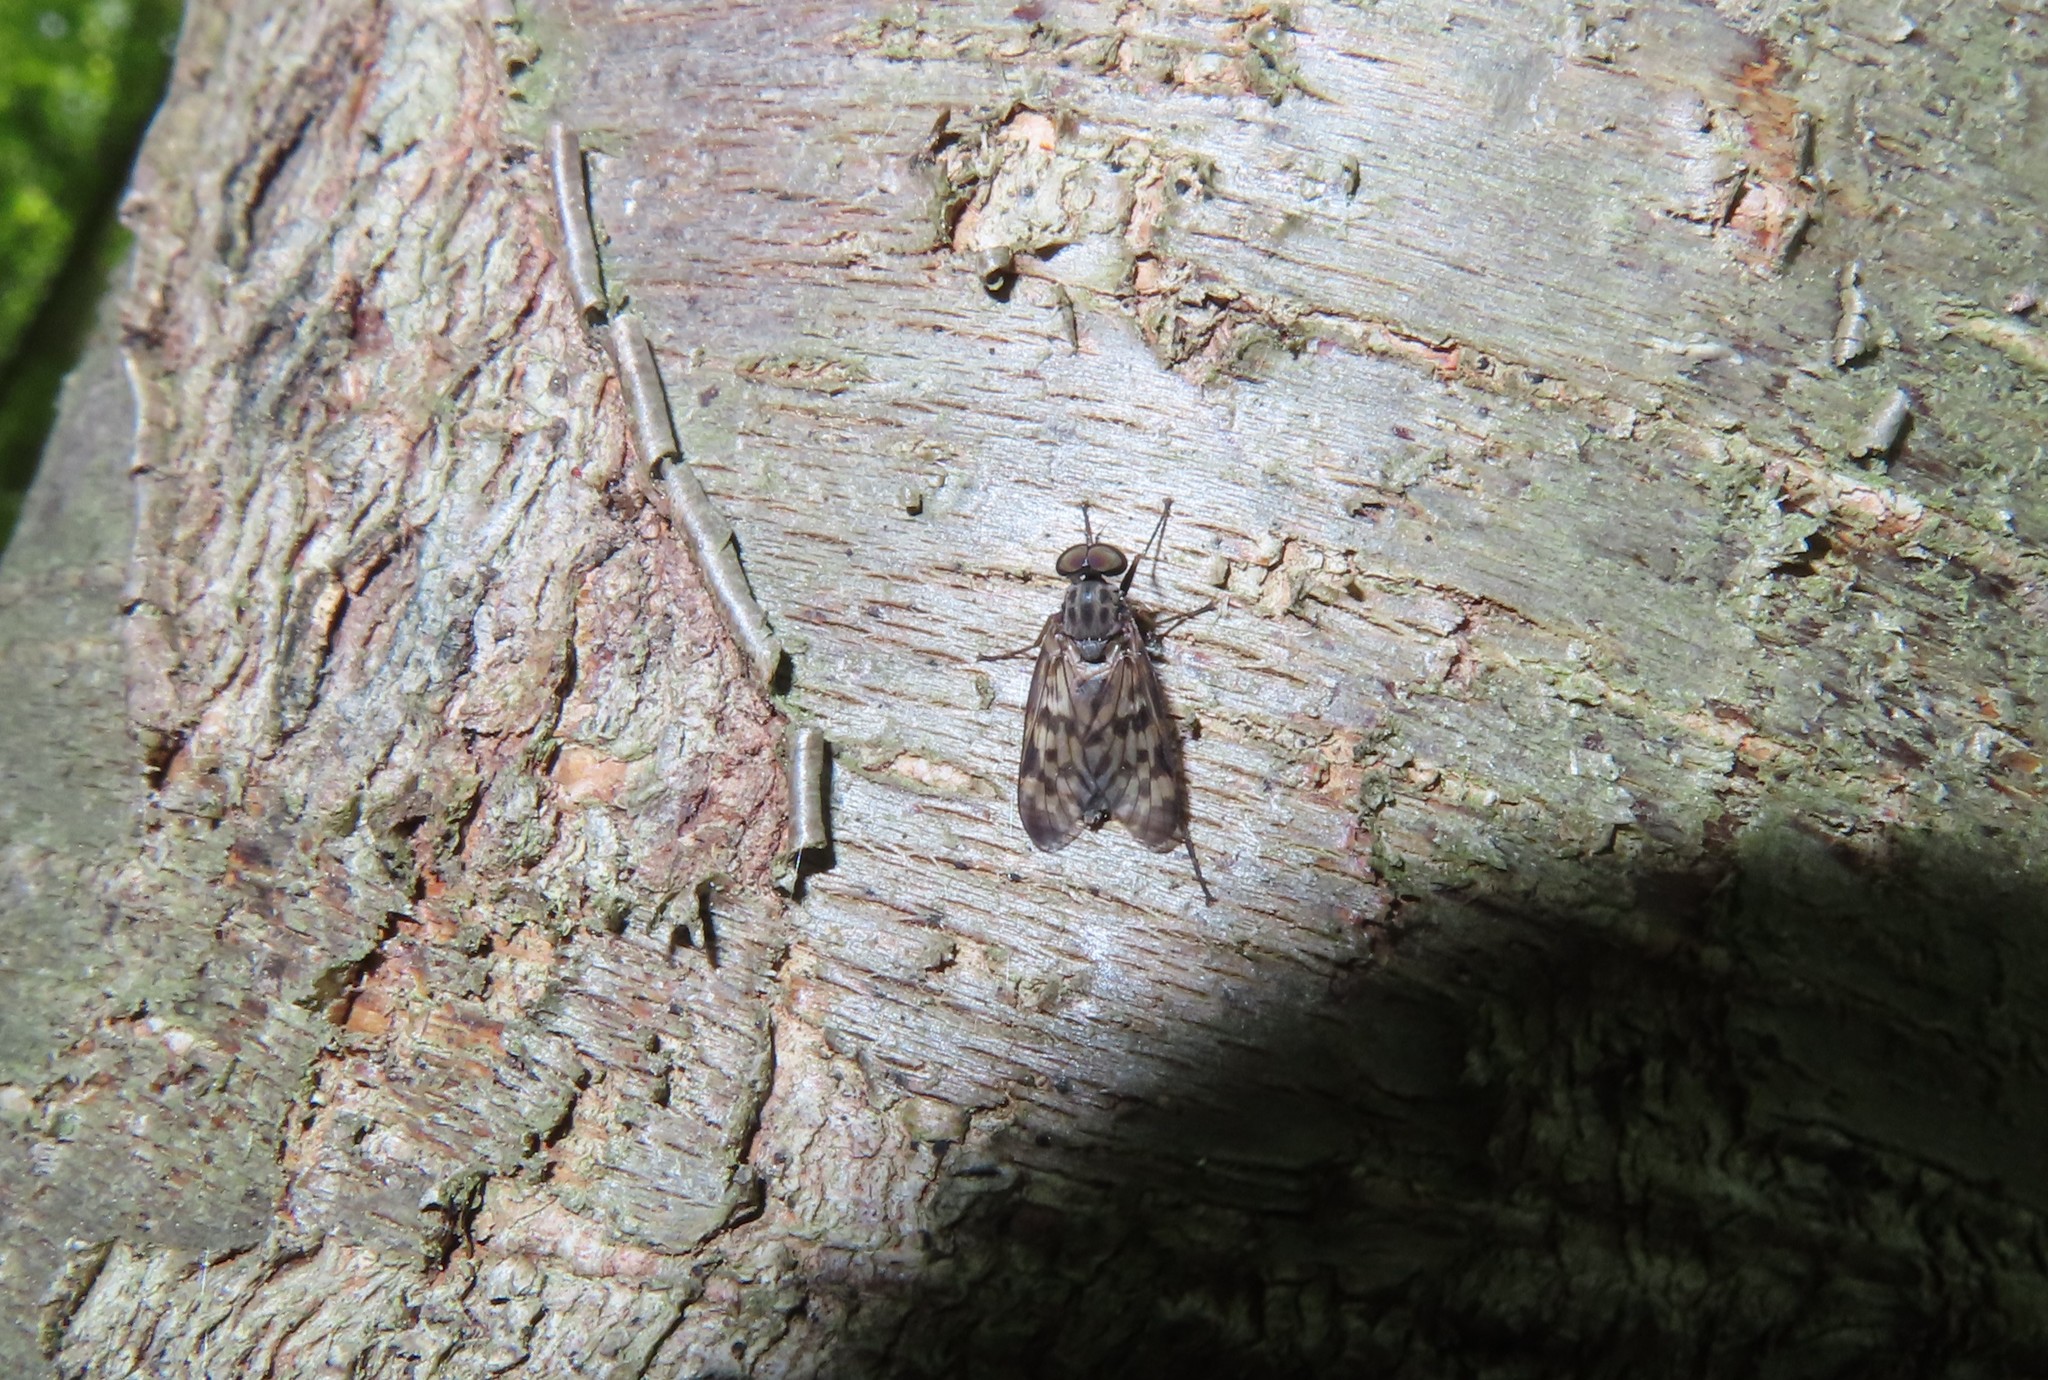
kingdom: Animalia
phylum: Arthropoda
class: Insecta
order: Diptera
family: Rhagionidae
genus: Rhagio
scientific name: Rhagio mystaceus
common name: Common snipe fly
